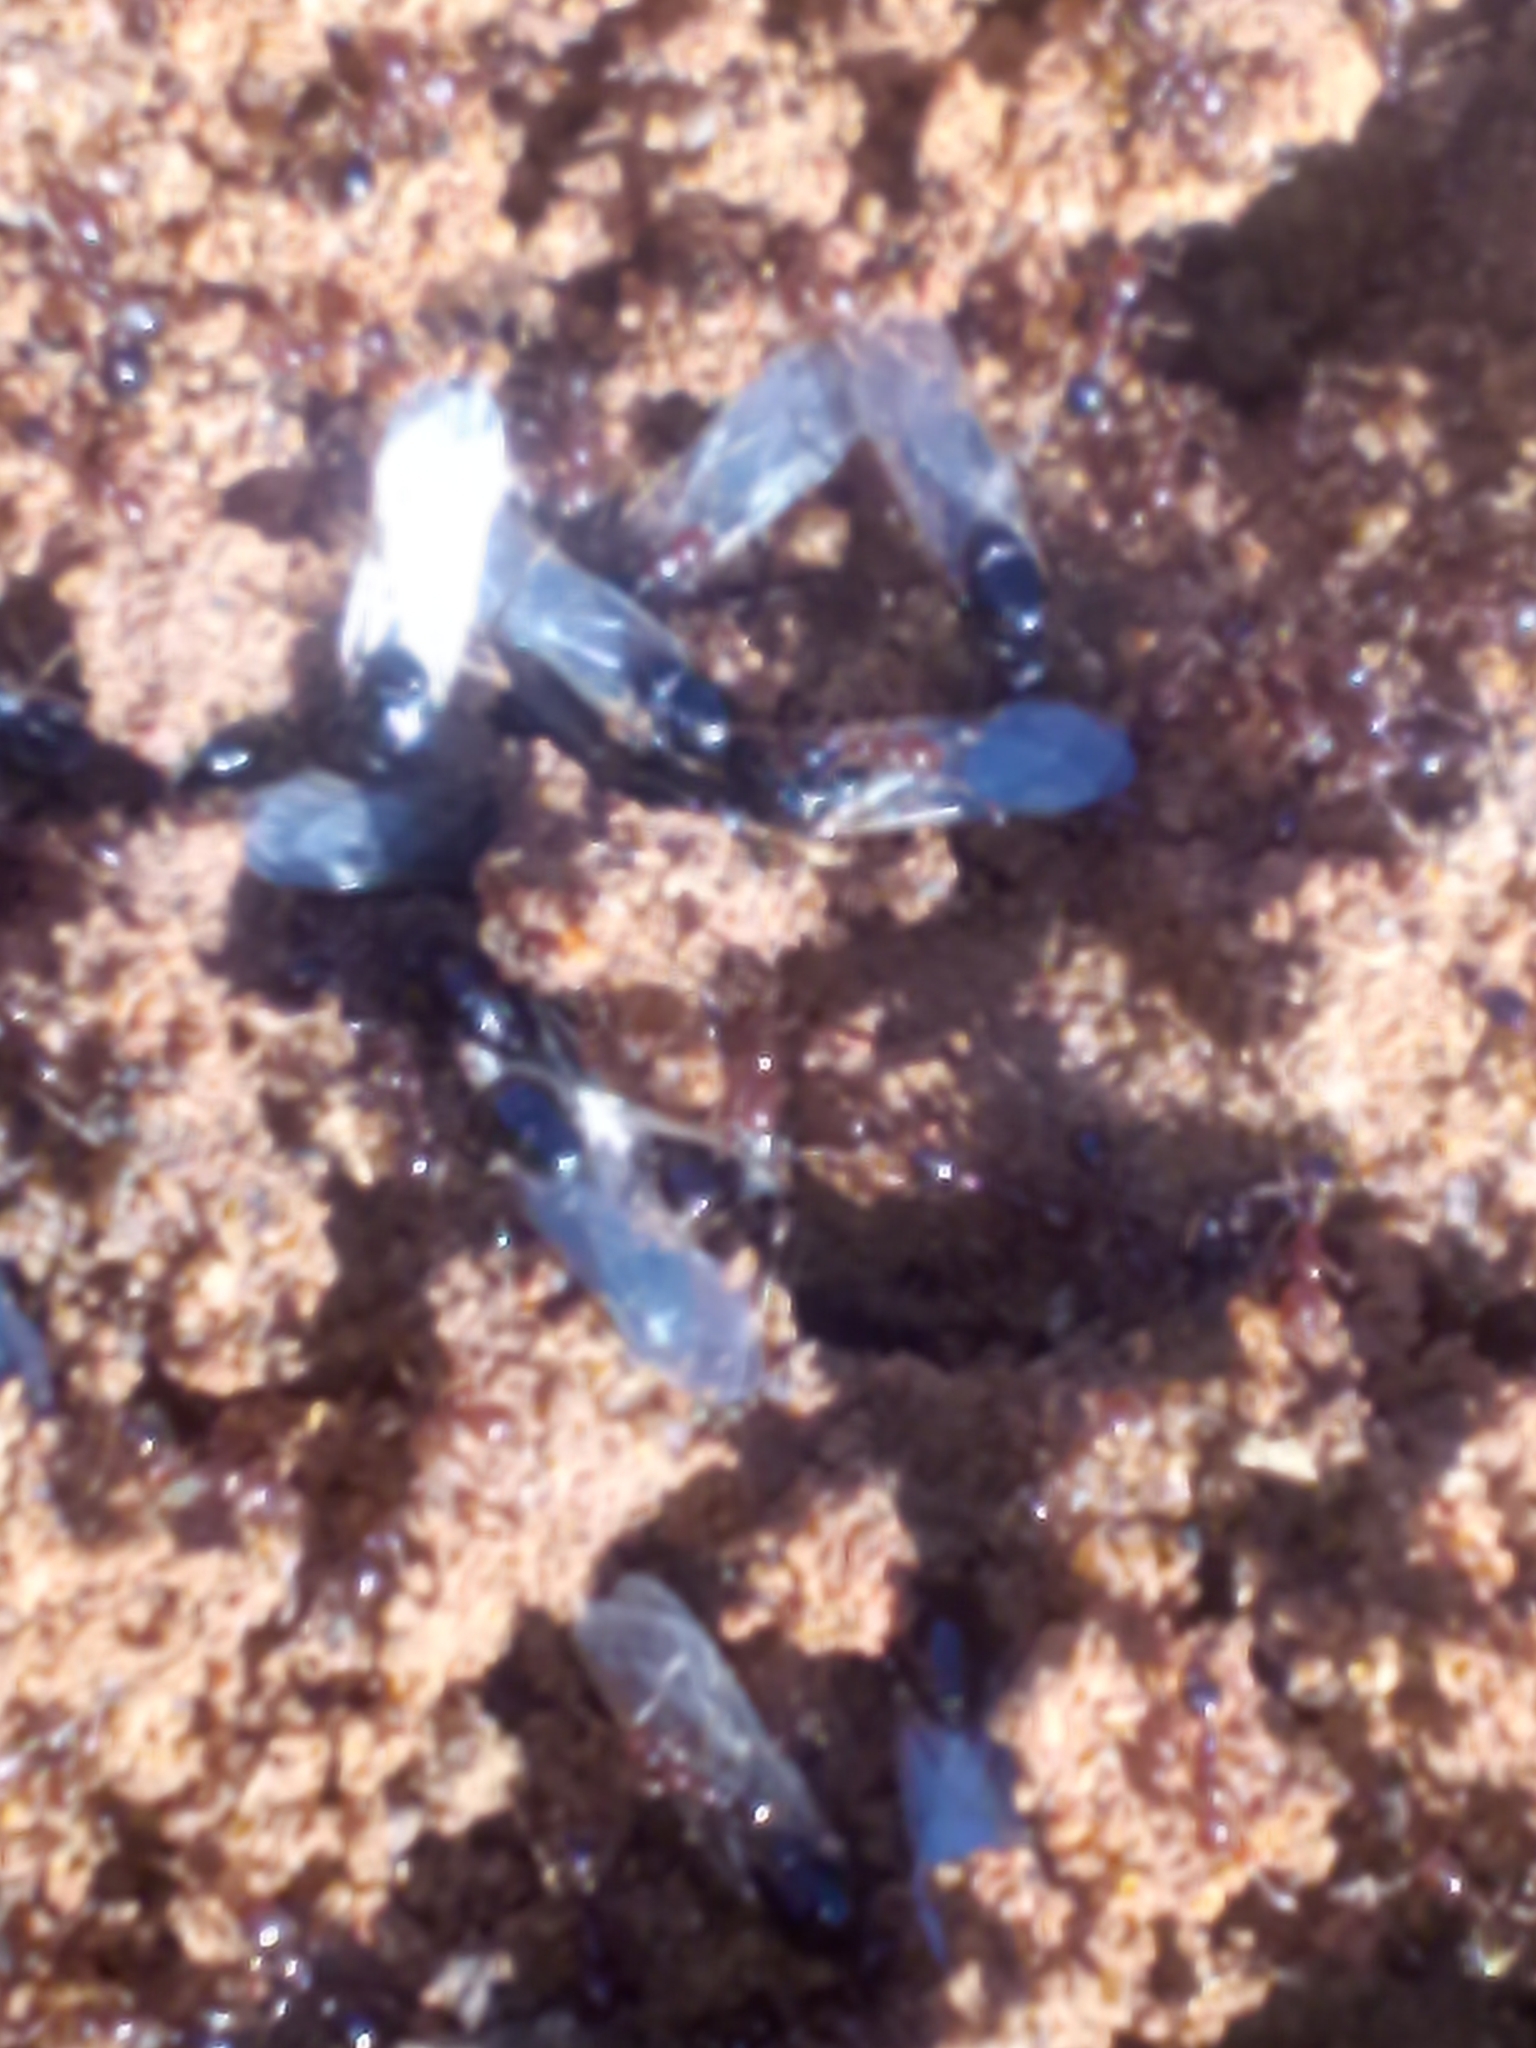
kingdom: Animalia
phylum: Arthropoda
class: Insecta
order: Hymenoptera
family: Formicidae
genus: Solenopsis
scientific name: Solenopsis invicta
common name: Red imported fire ant
